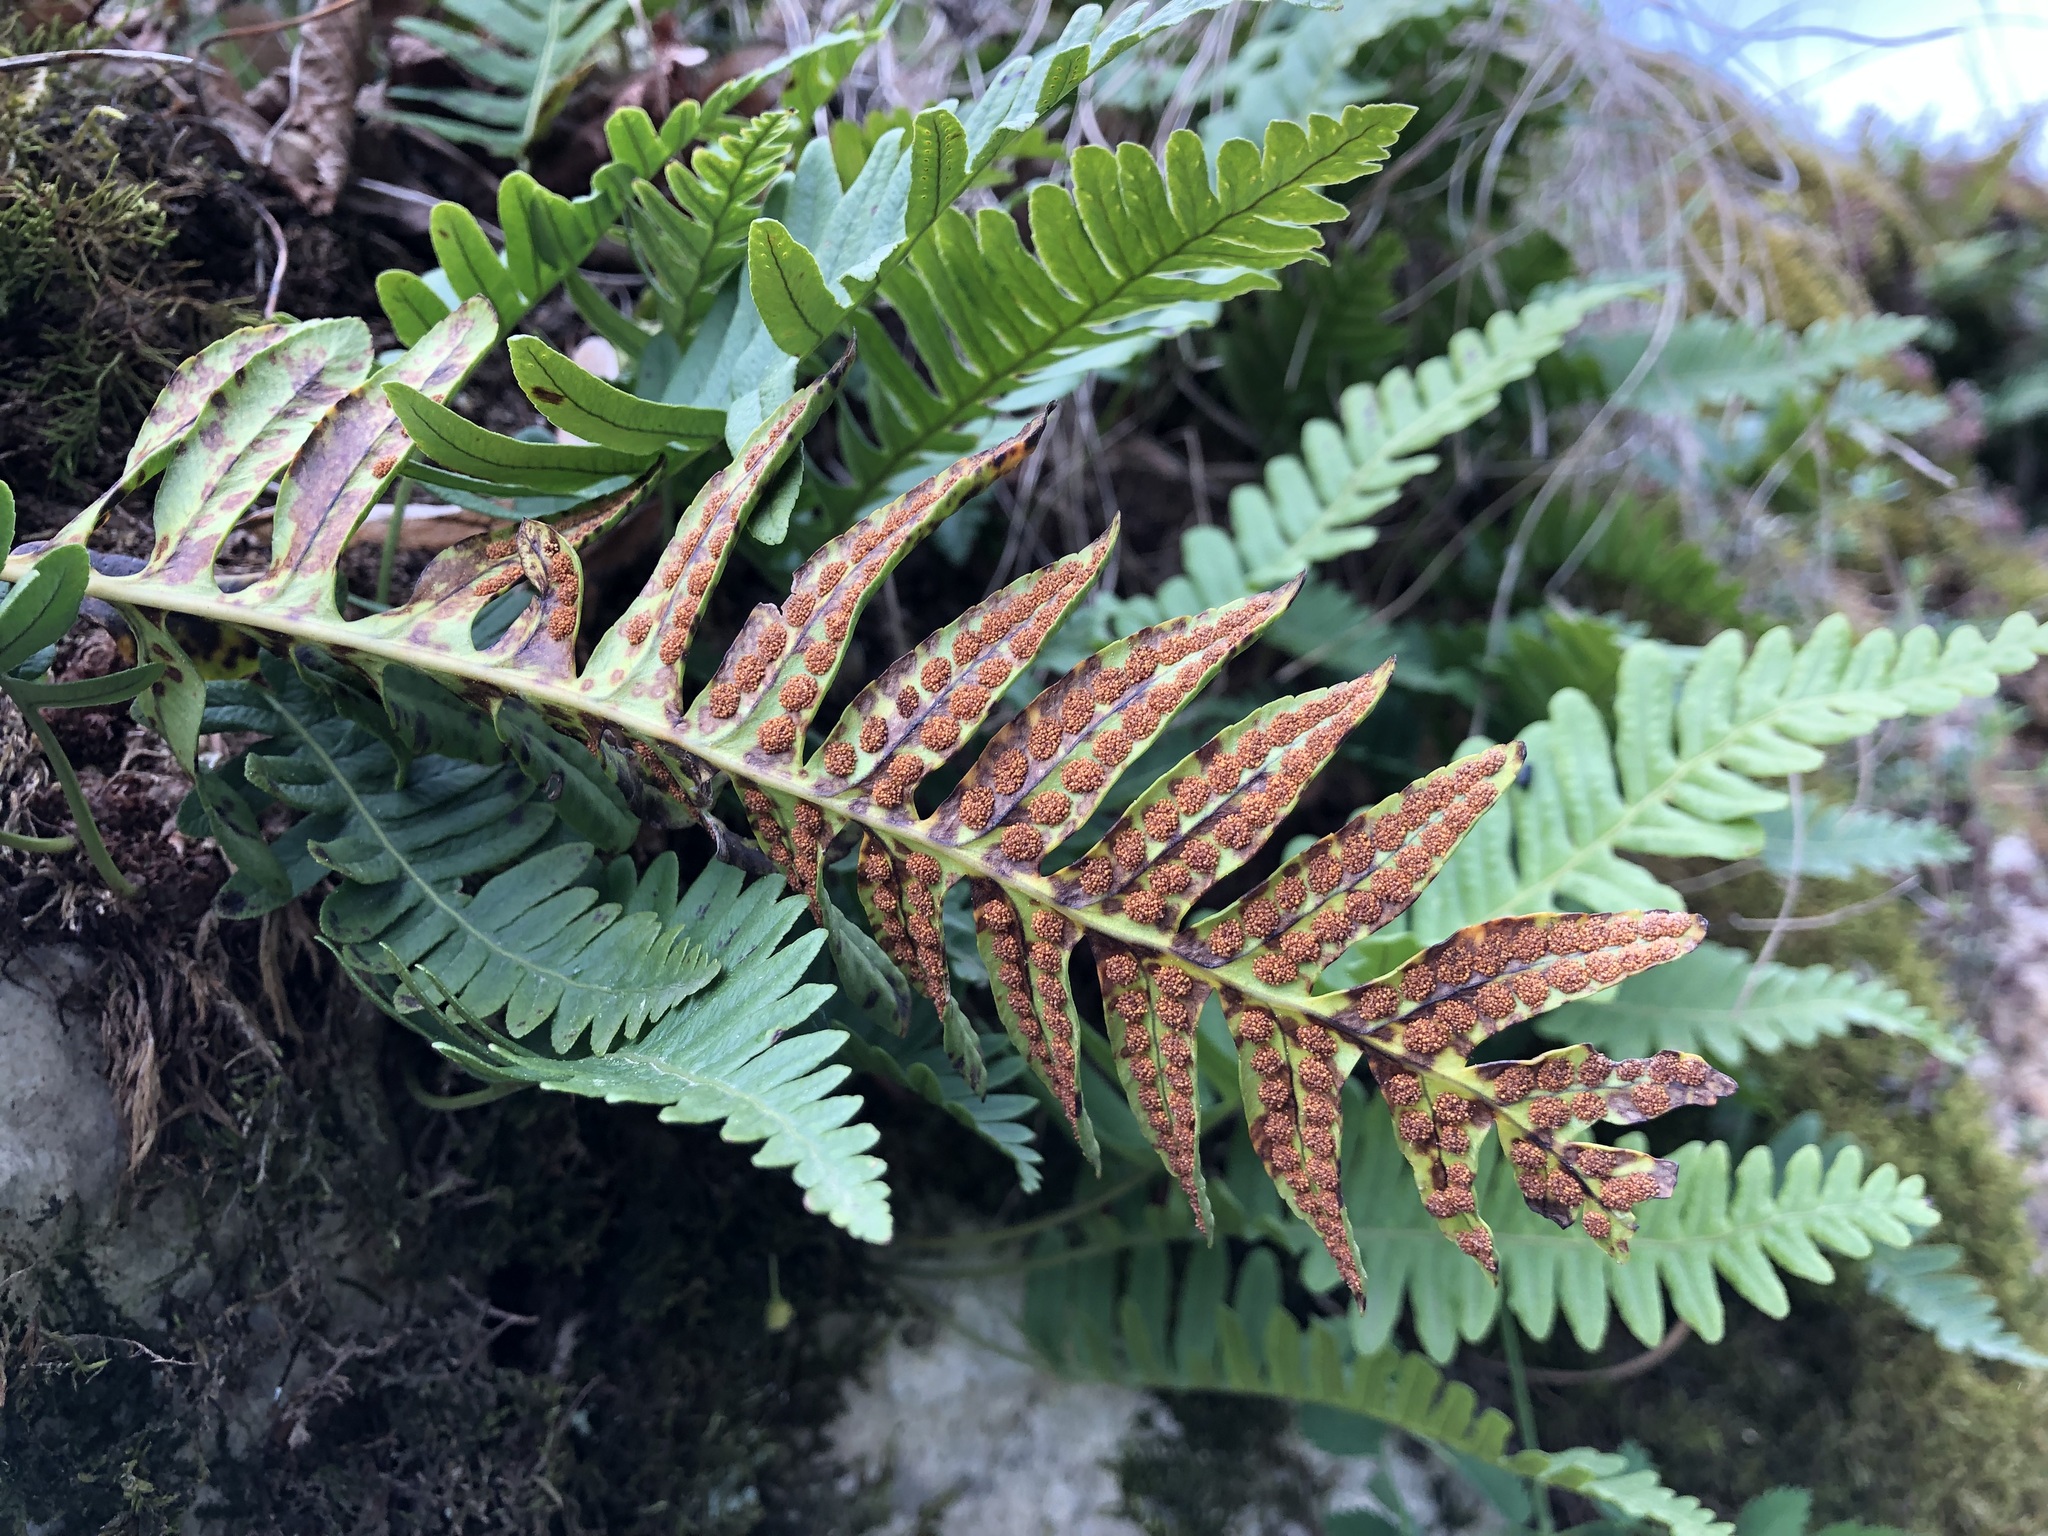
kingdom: Plantae
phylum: Tracheophyta
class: Polypodiopsida
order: Polypodiales
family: Polypodiaceae
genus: Polypodium
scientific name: Polypodium vulgare
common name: Common polypody
